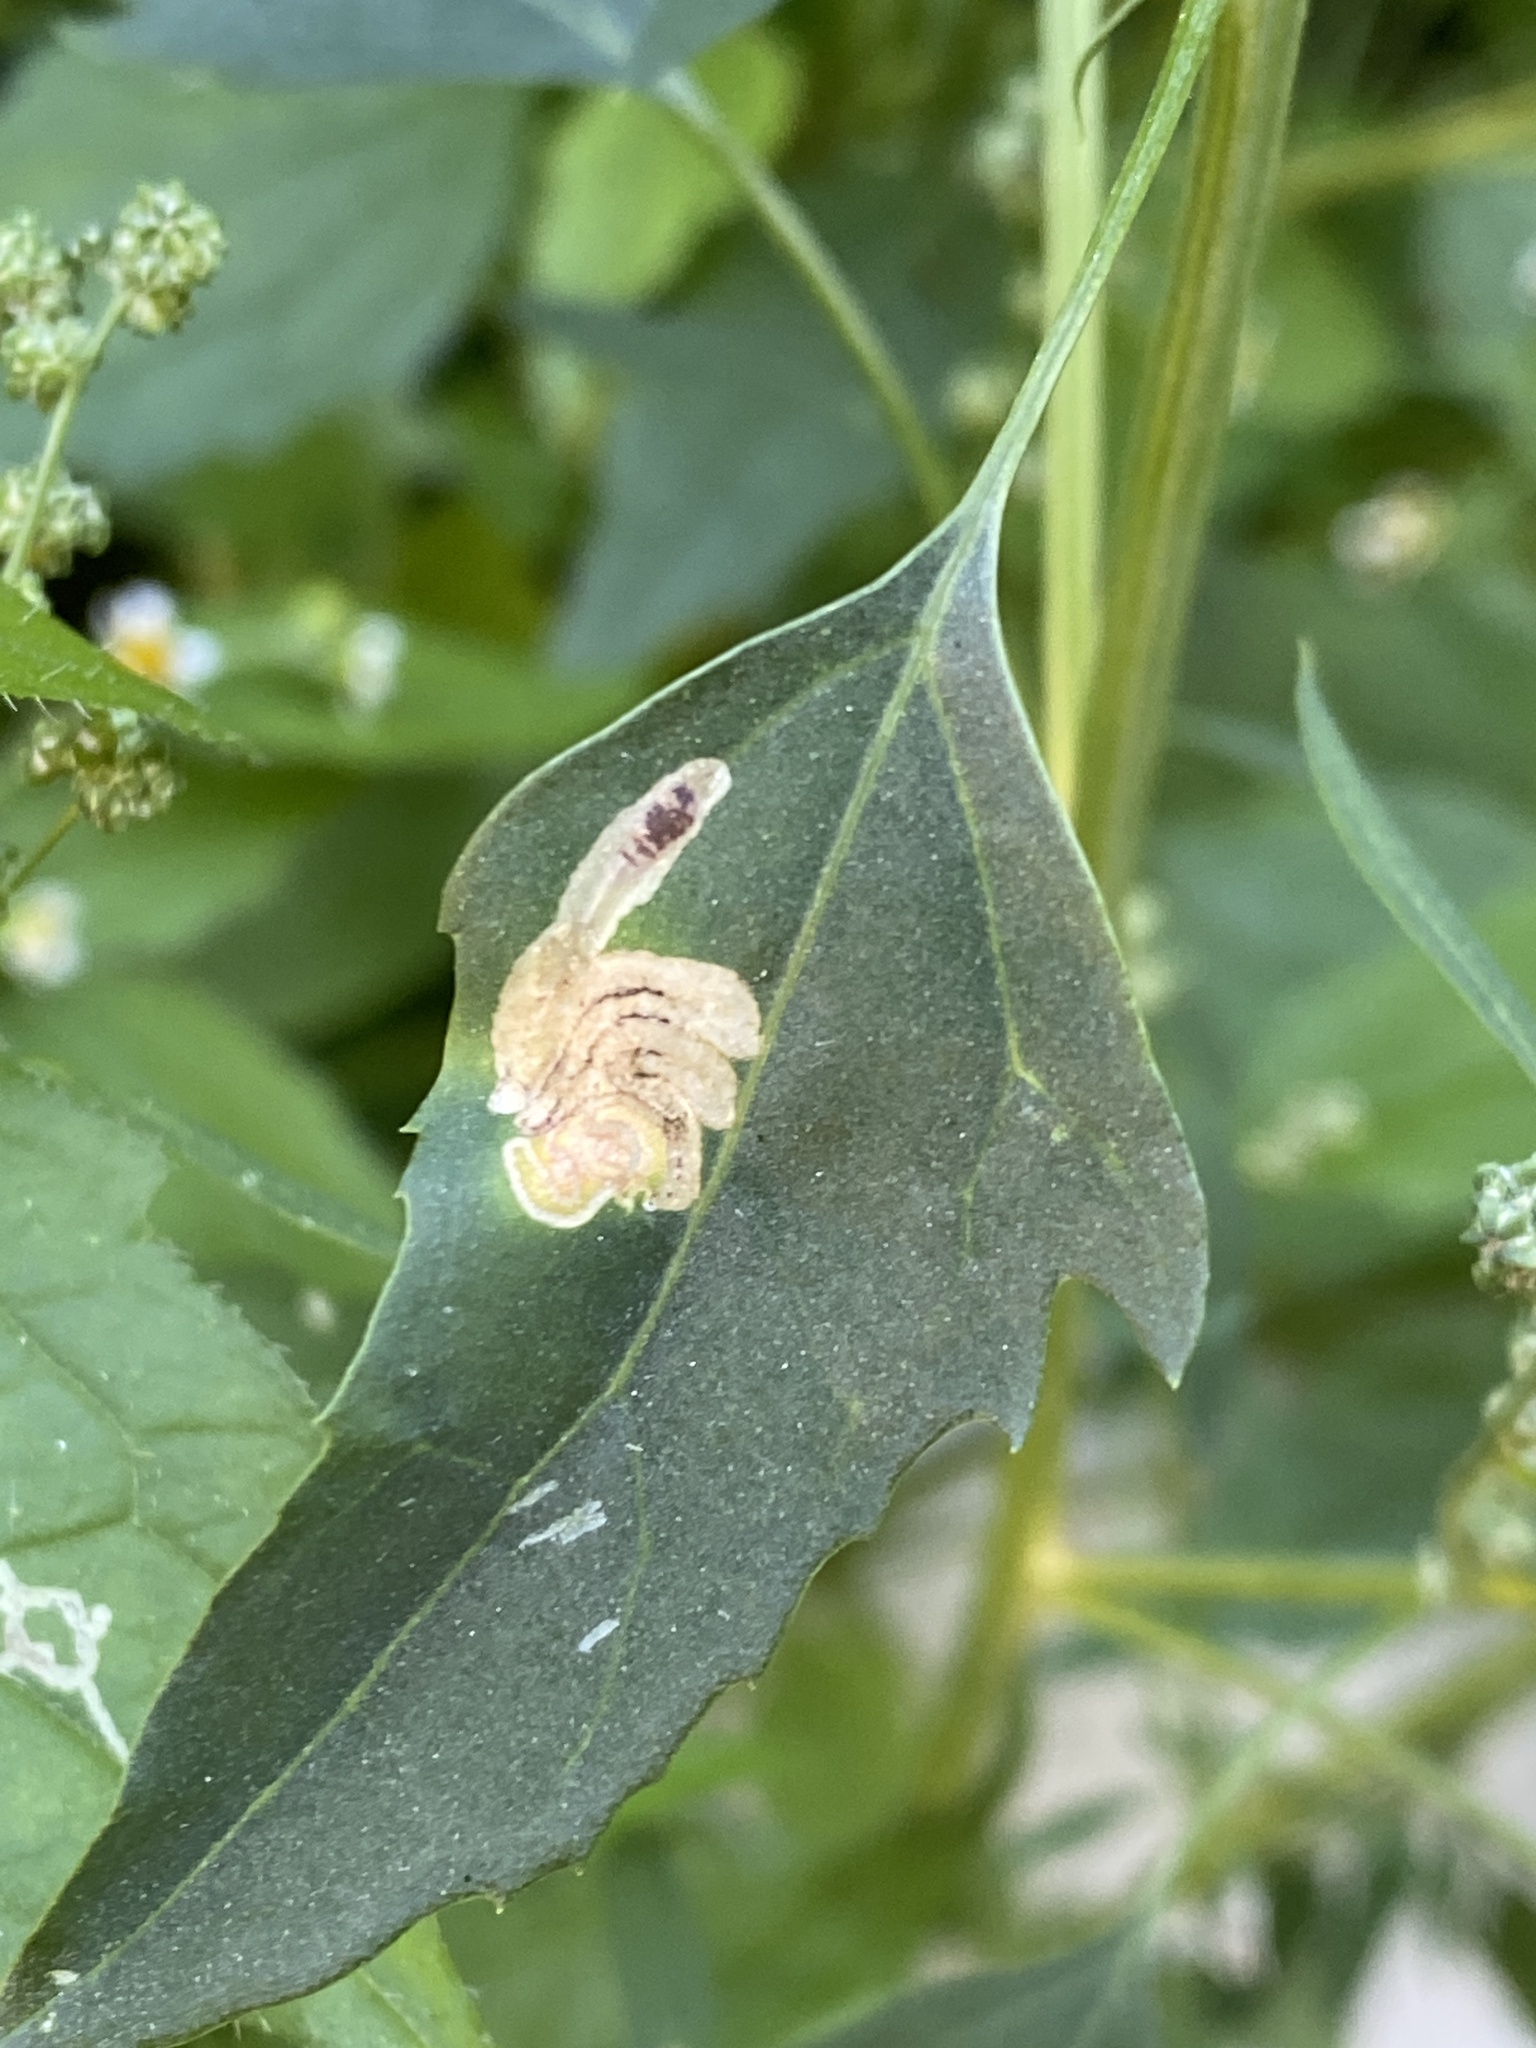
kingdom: Animalia
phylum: Arthropoda
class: Insecta
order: Lepidoptera
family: Gelechiidae
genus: Chrysoesthia
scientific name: Chrysoesthia drurella
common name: Flame neb
